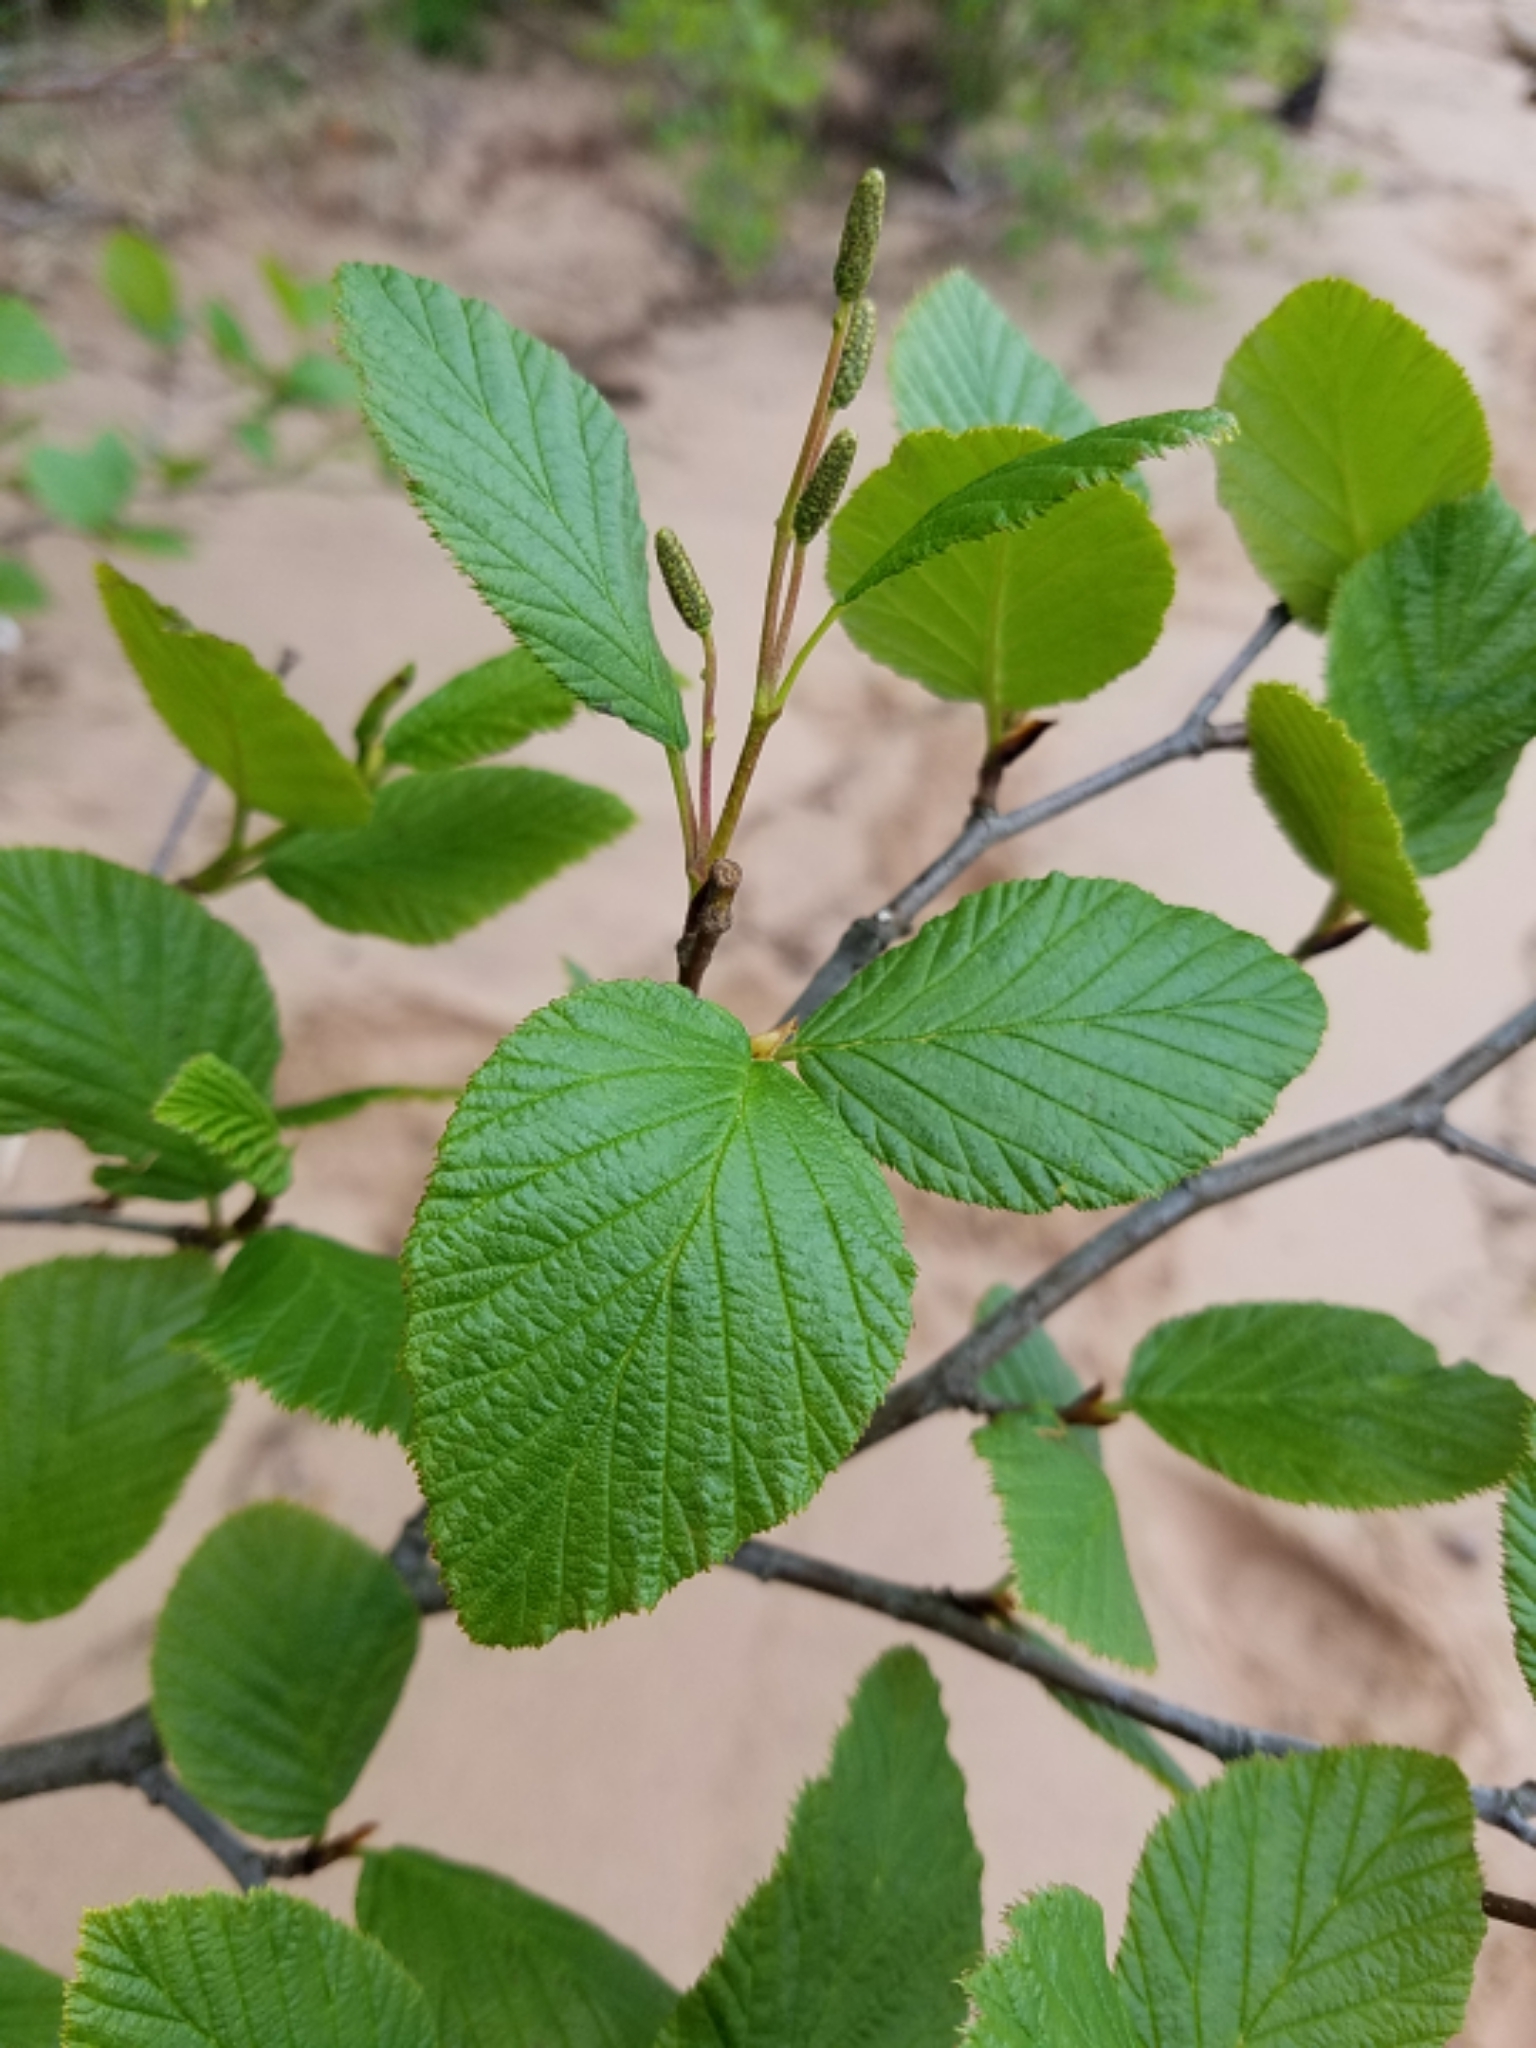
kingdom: Plantae
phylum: Tracheophyta
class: Magnoliopsida
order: Fagales
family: Betulaceae
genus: Alnus
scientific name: Alnus alnobetula
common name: Green alder
